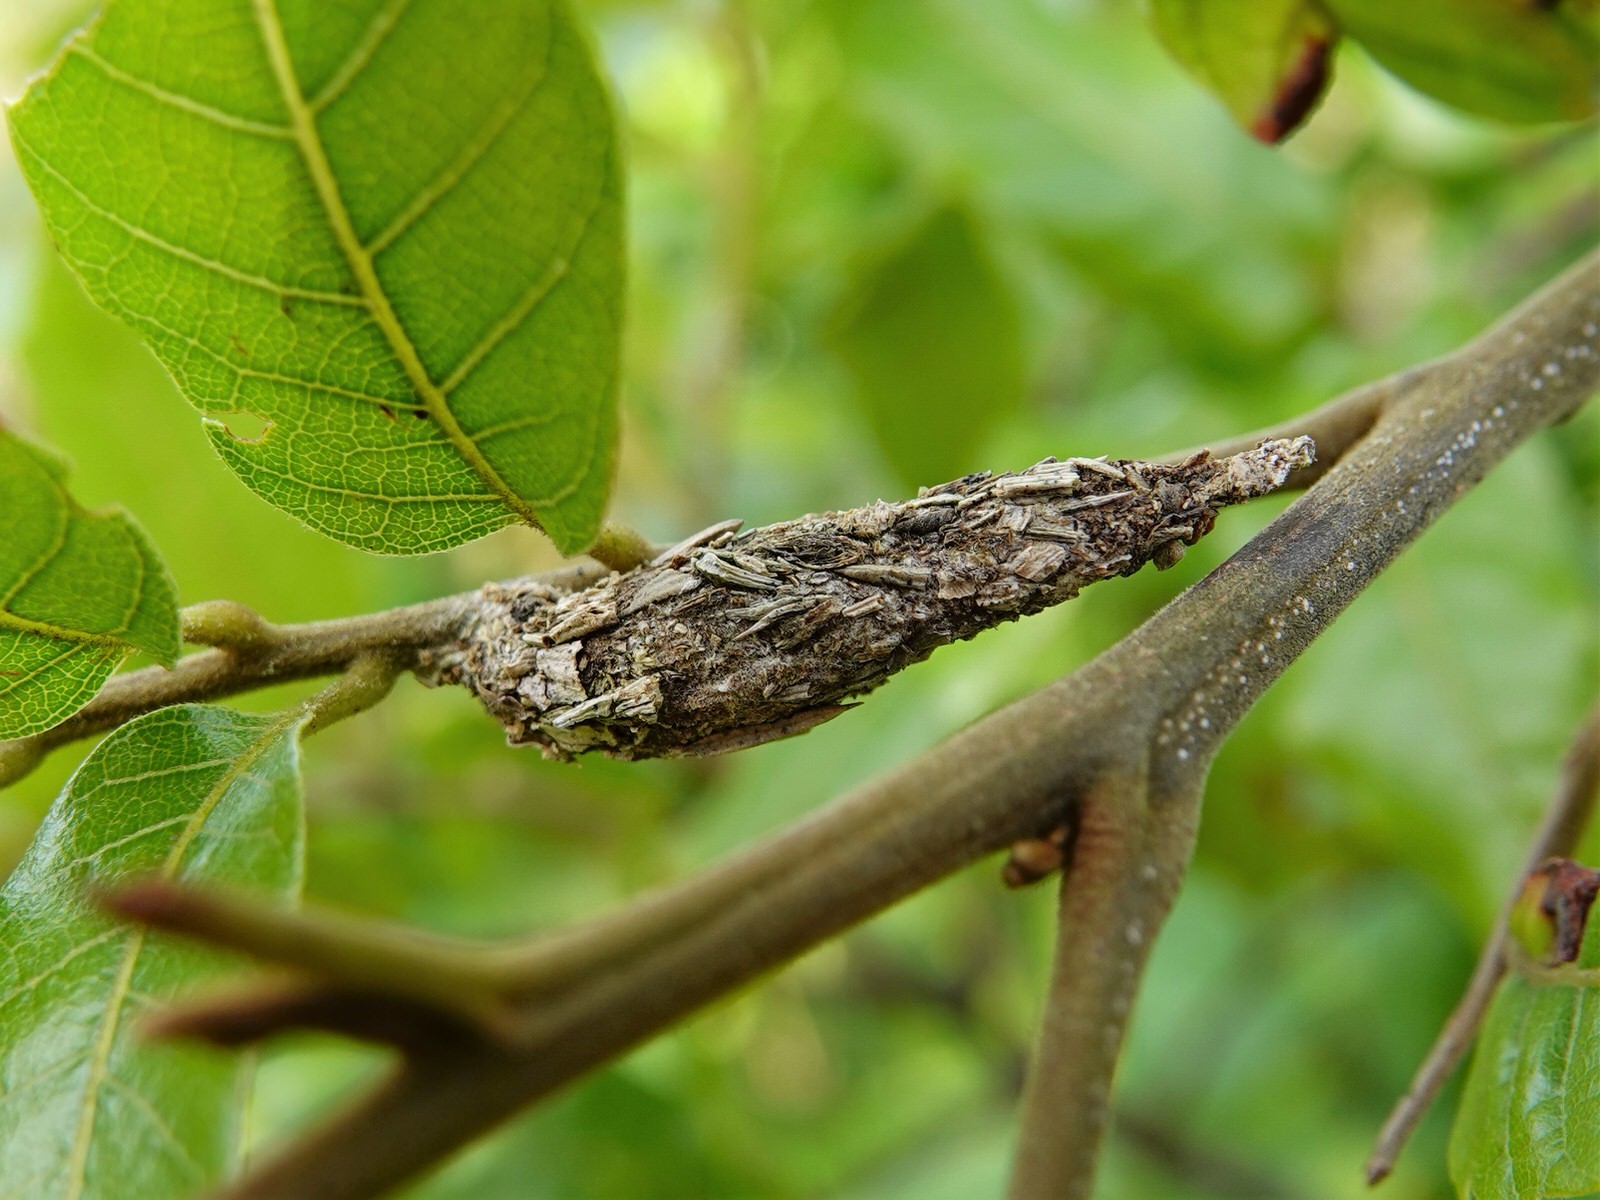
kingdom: Animalia
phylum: Arthropoda
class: Insecta
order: Lepidoptera
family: Psychidae
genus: Liothula
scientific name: Liothula omnivora
